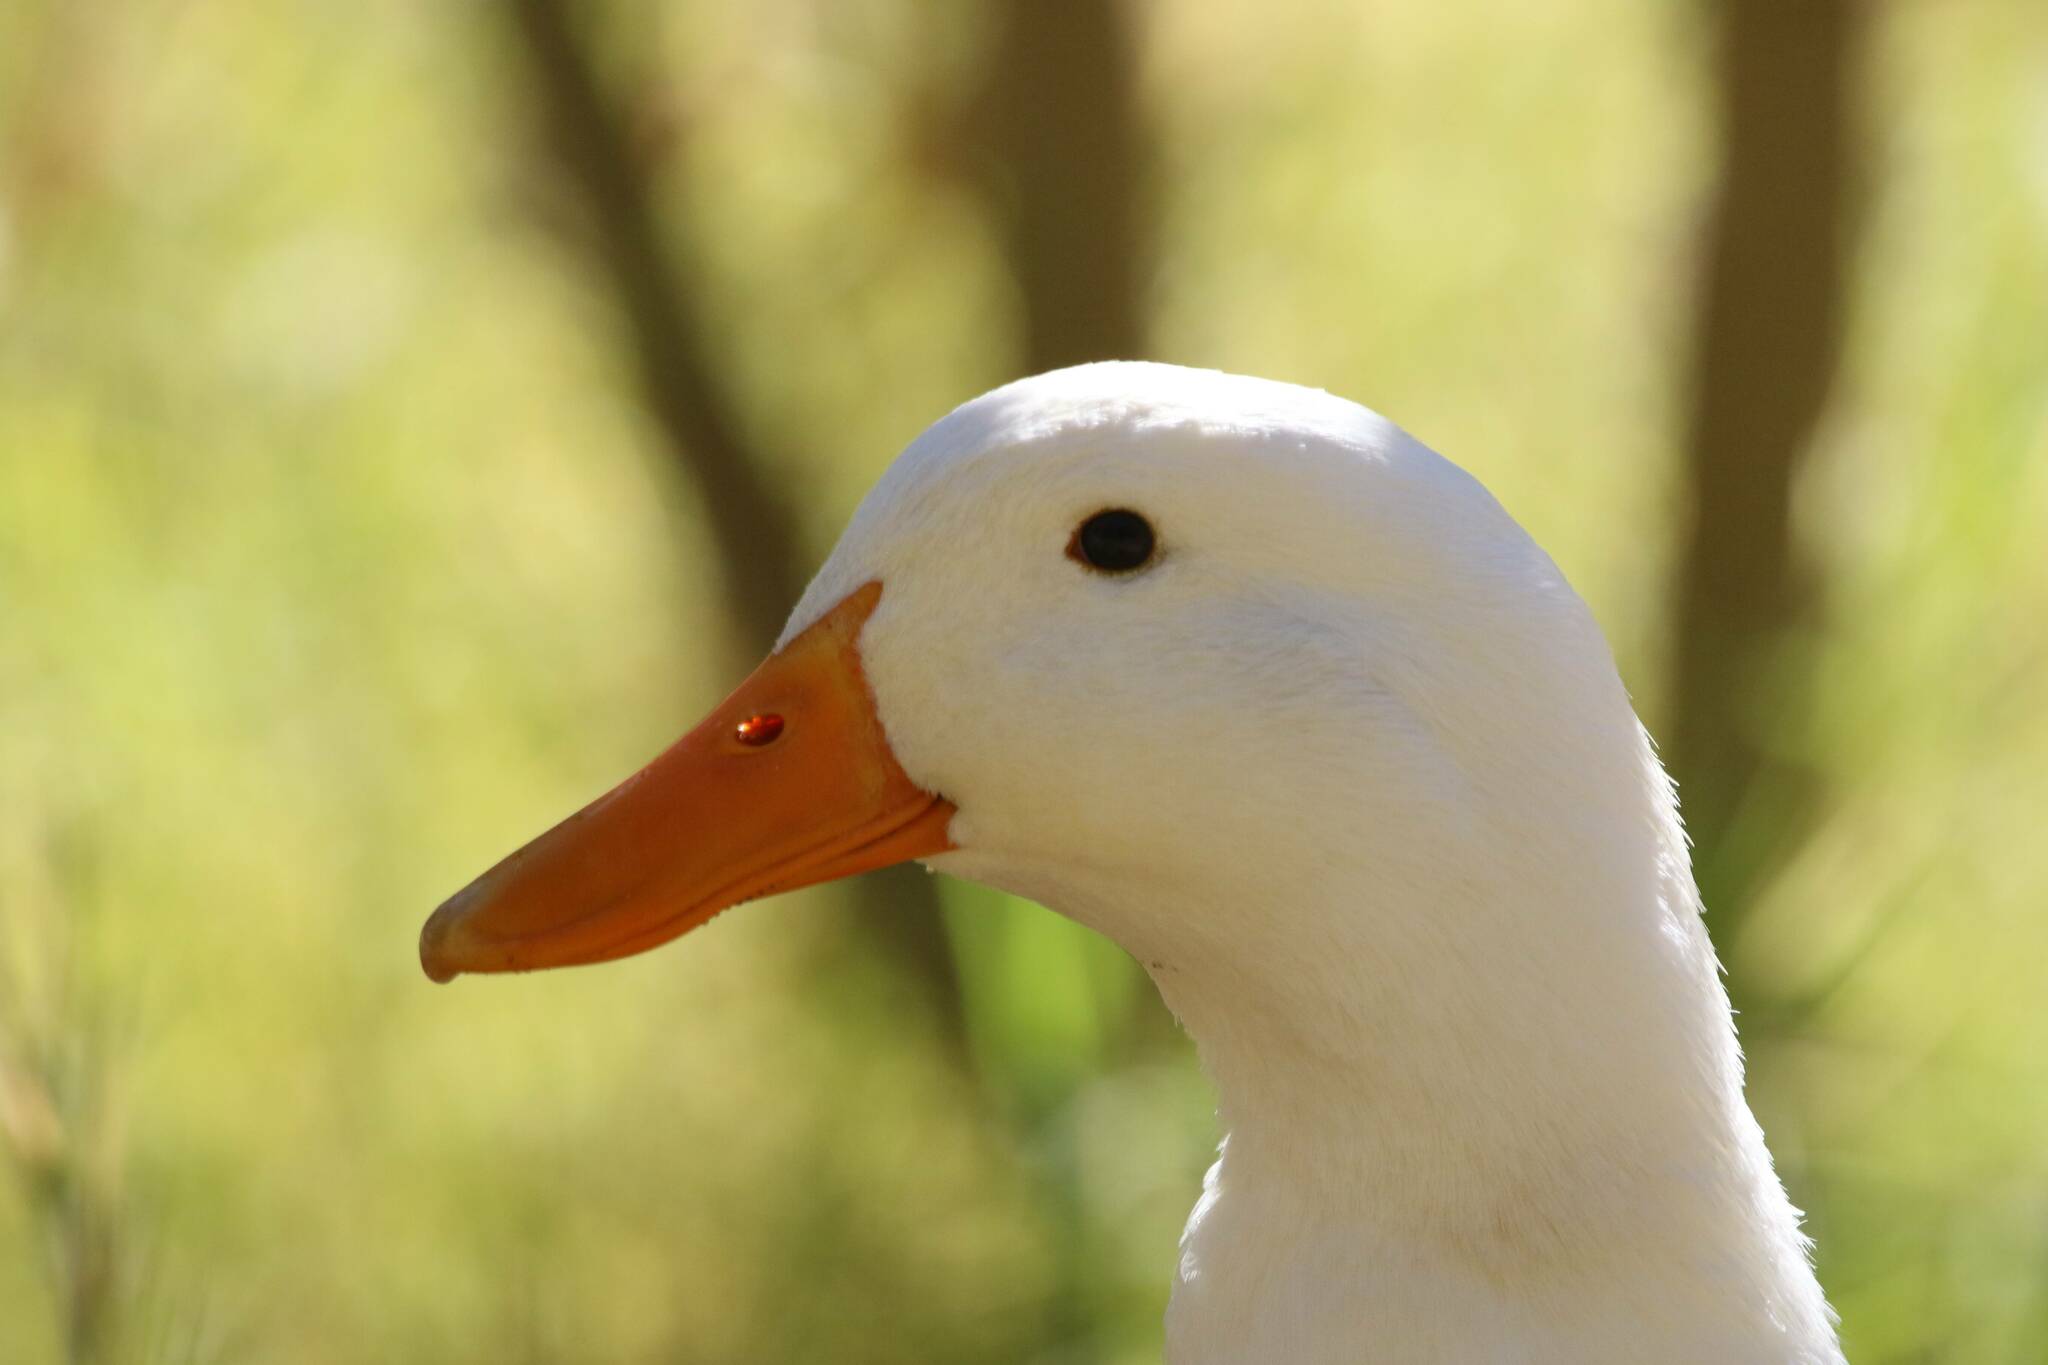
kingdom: Animalia
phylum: Chordata
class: Aves
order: Anseriformes
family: Anatidae
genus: Anas
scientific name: Anas platyrhynchos
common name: Mallard
